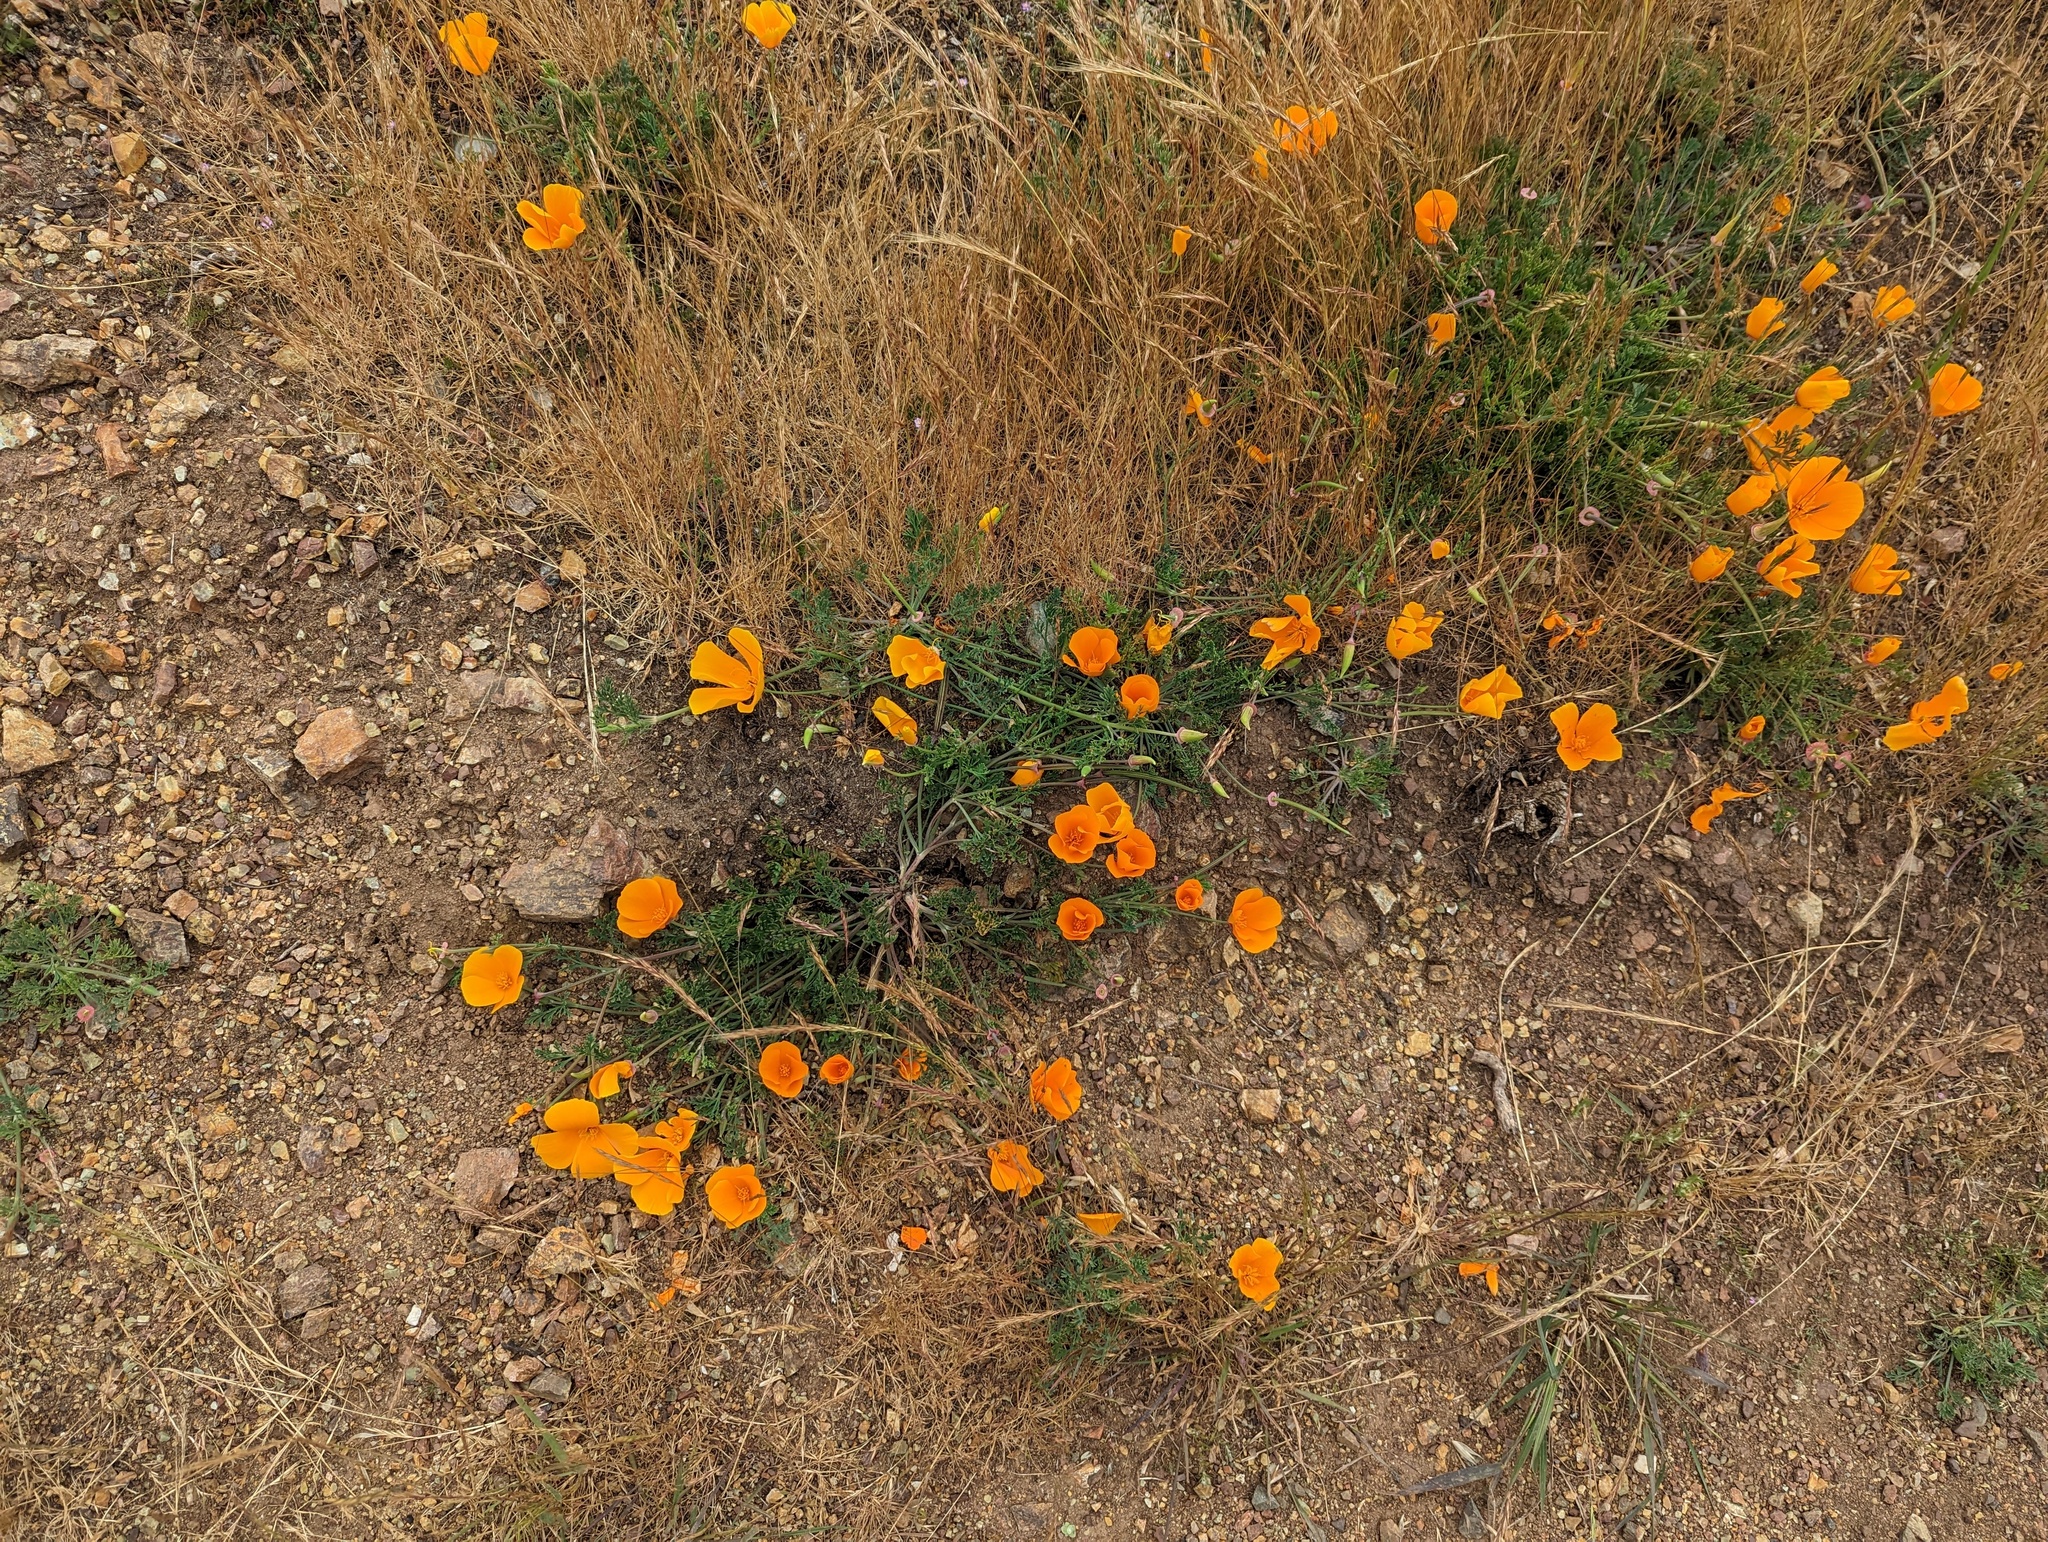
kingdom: Plantae
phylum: Tracheophyta
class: Magnoliopsida
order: Ranunculales
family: Papaveraceae
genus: Eschscholzia
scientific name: Eschscholzia californica
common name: California poppy
